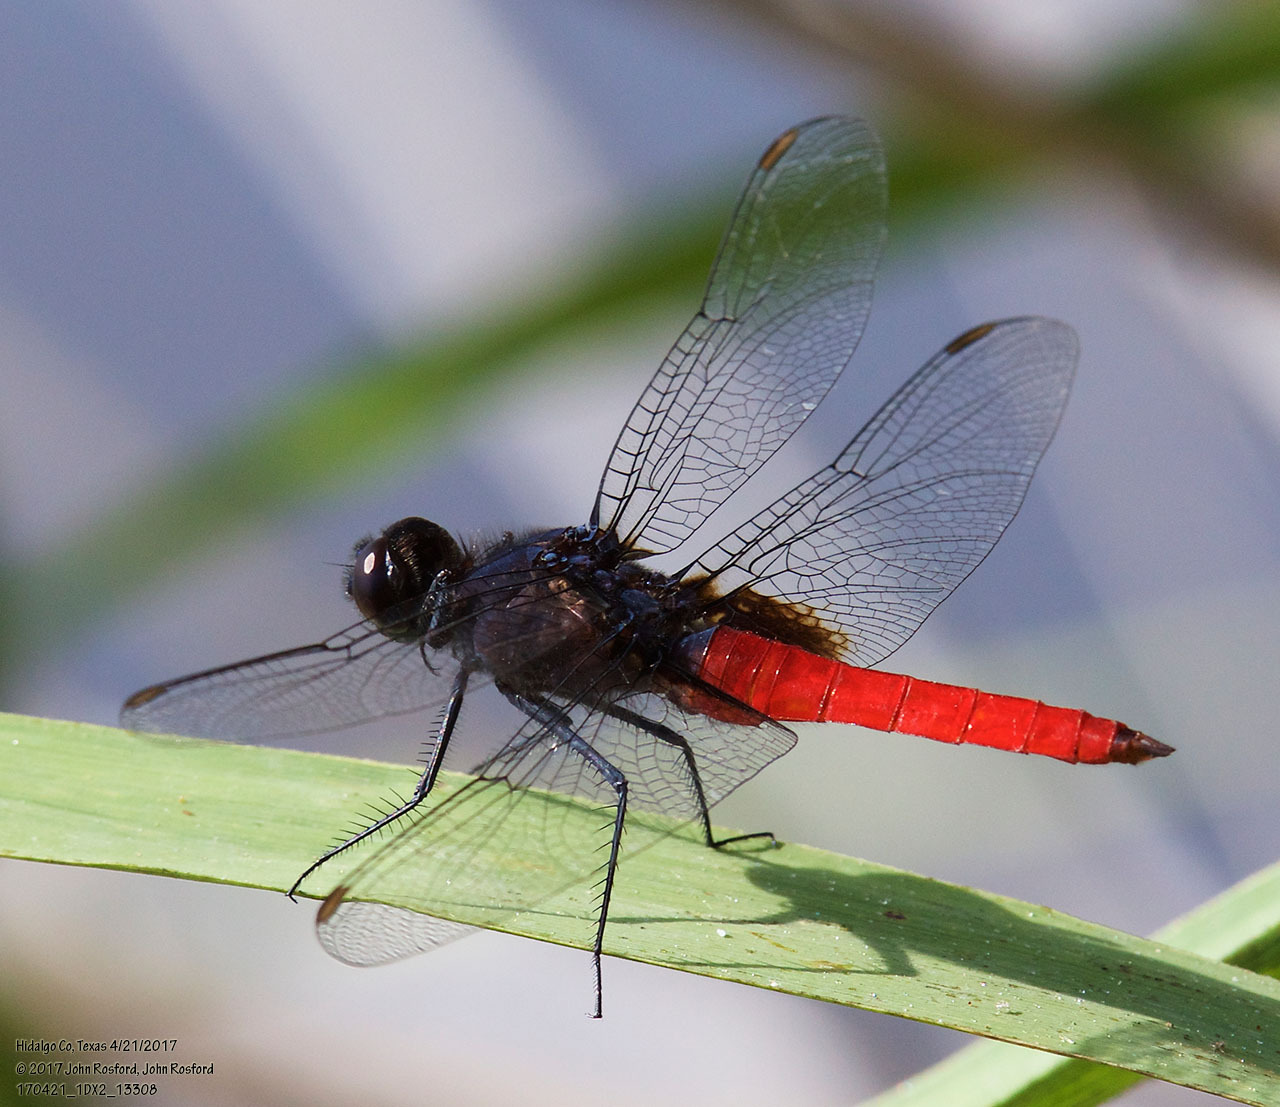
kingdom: Animalia
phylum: Arthropoda
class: Insecta
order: Odonata
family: Libellulidae
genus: Planiplax
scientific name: Planiplax sanguiniventris
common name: Mexican scarlet-tail
